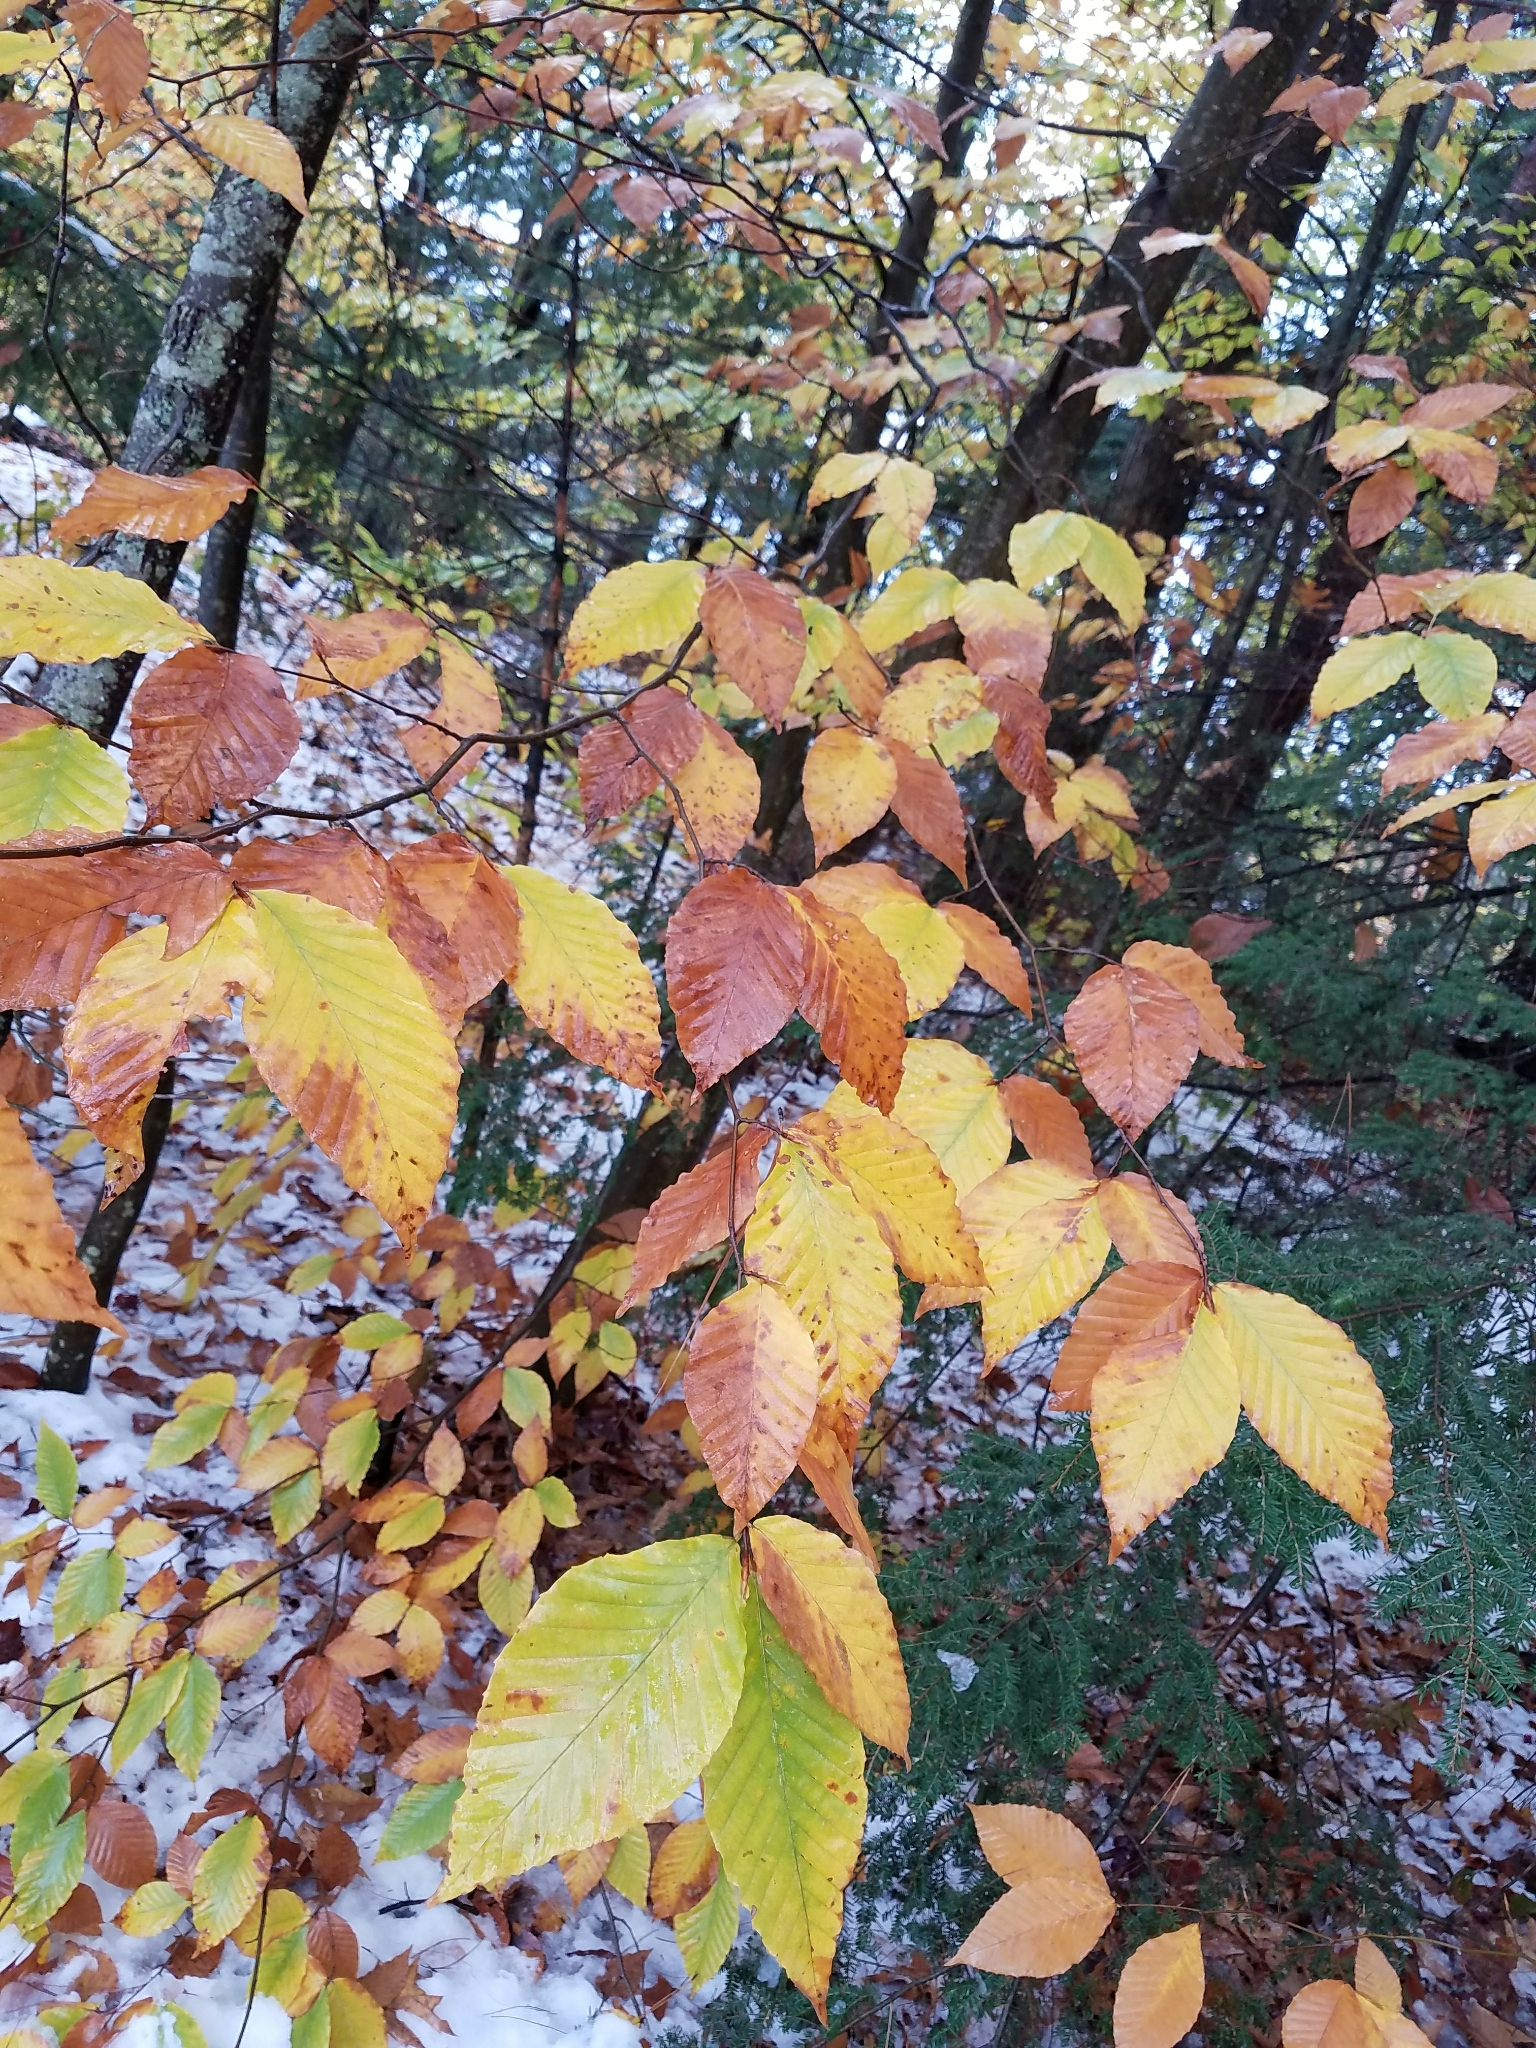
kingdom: Plantae
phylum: Tracheophyta
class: Magnoliopsida
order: Fagales
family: Fagaceae
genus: Fagus
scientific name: Fagus grandifolia
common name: American beech
